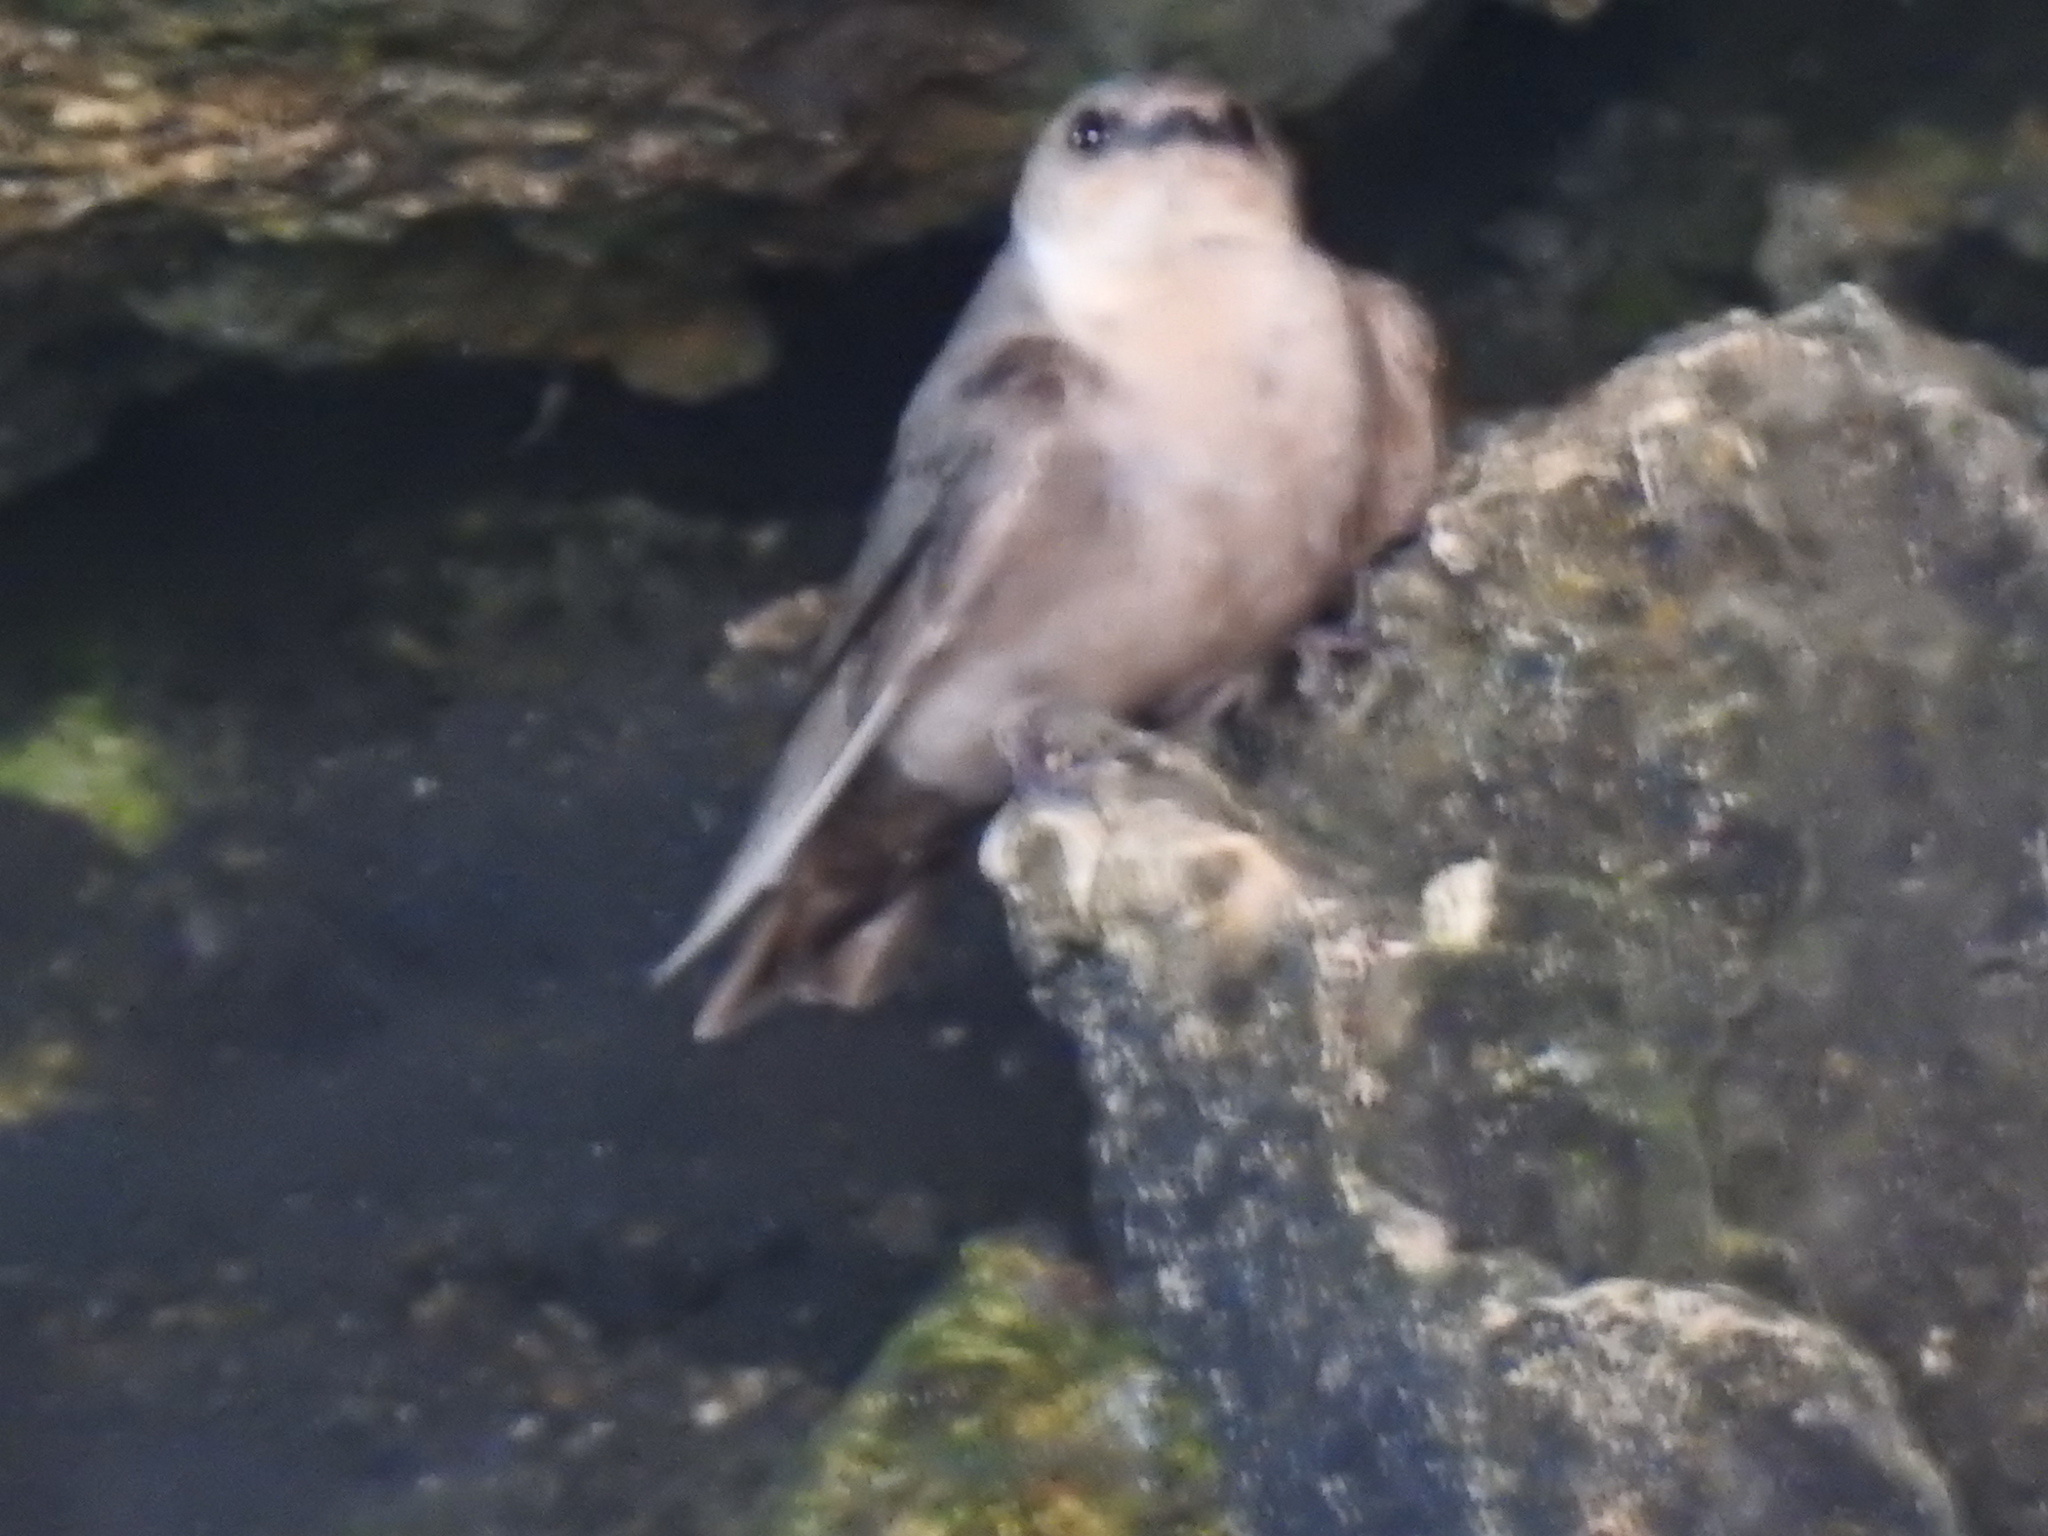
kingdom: Animalia
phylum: Chordata
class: Aves
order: Passeriformes
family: Hirundinidae
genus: Ptyonoprogne
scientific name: Ptyonoprogne fuligula
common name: Rock martin
